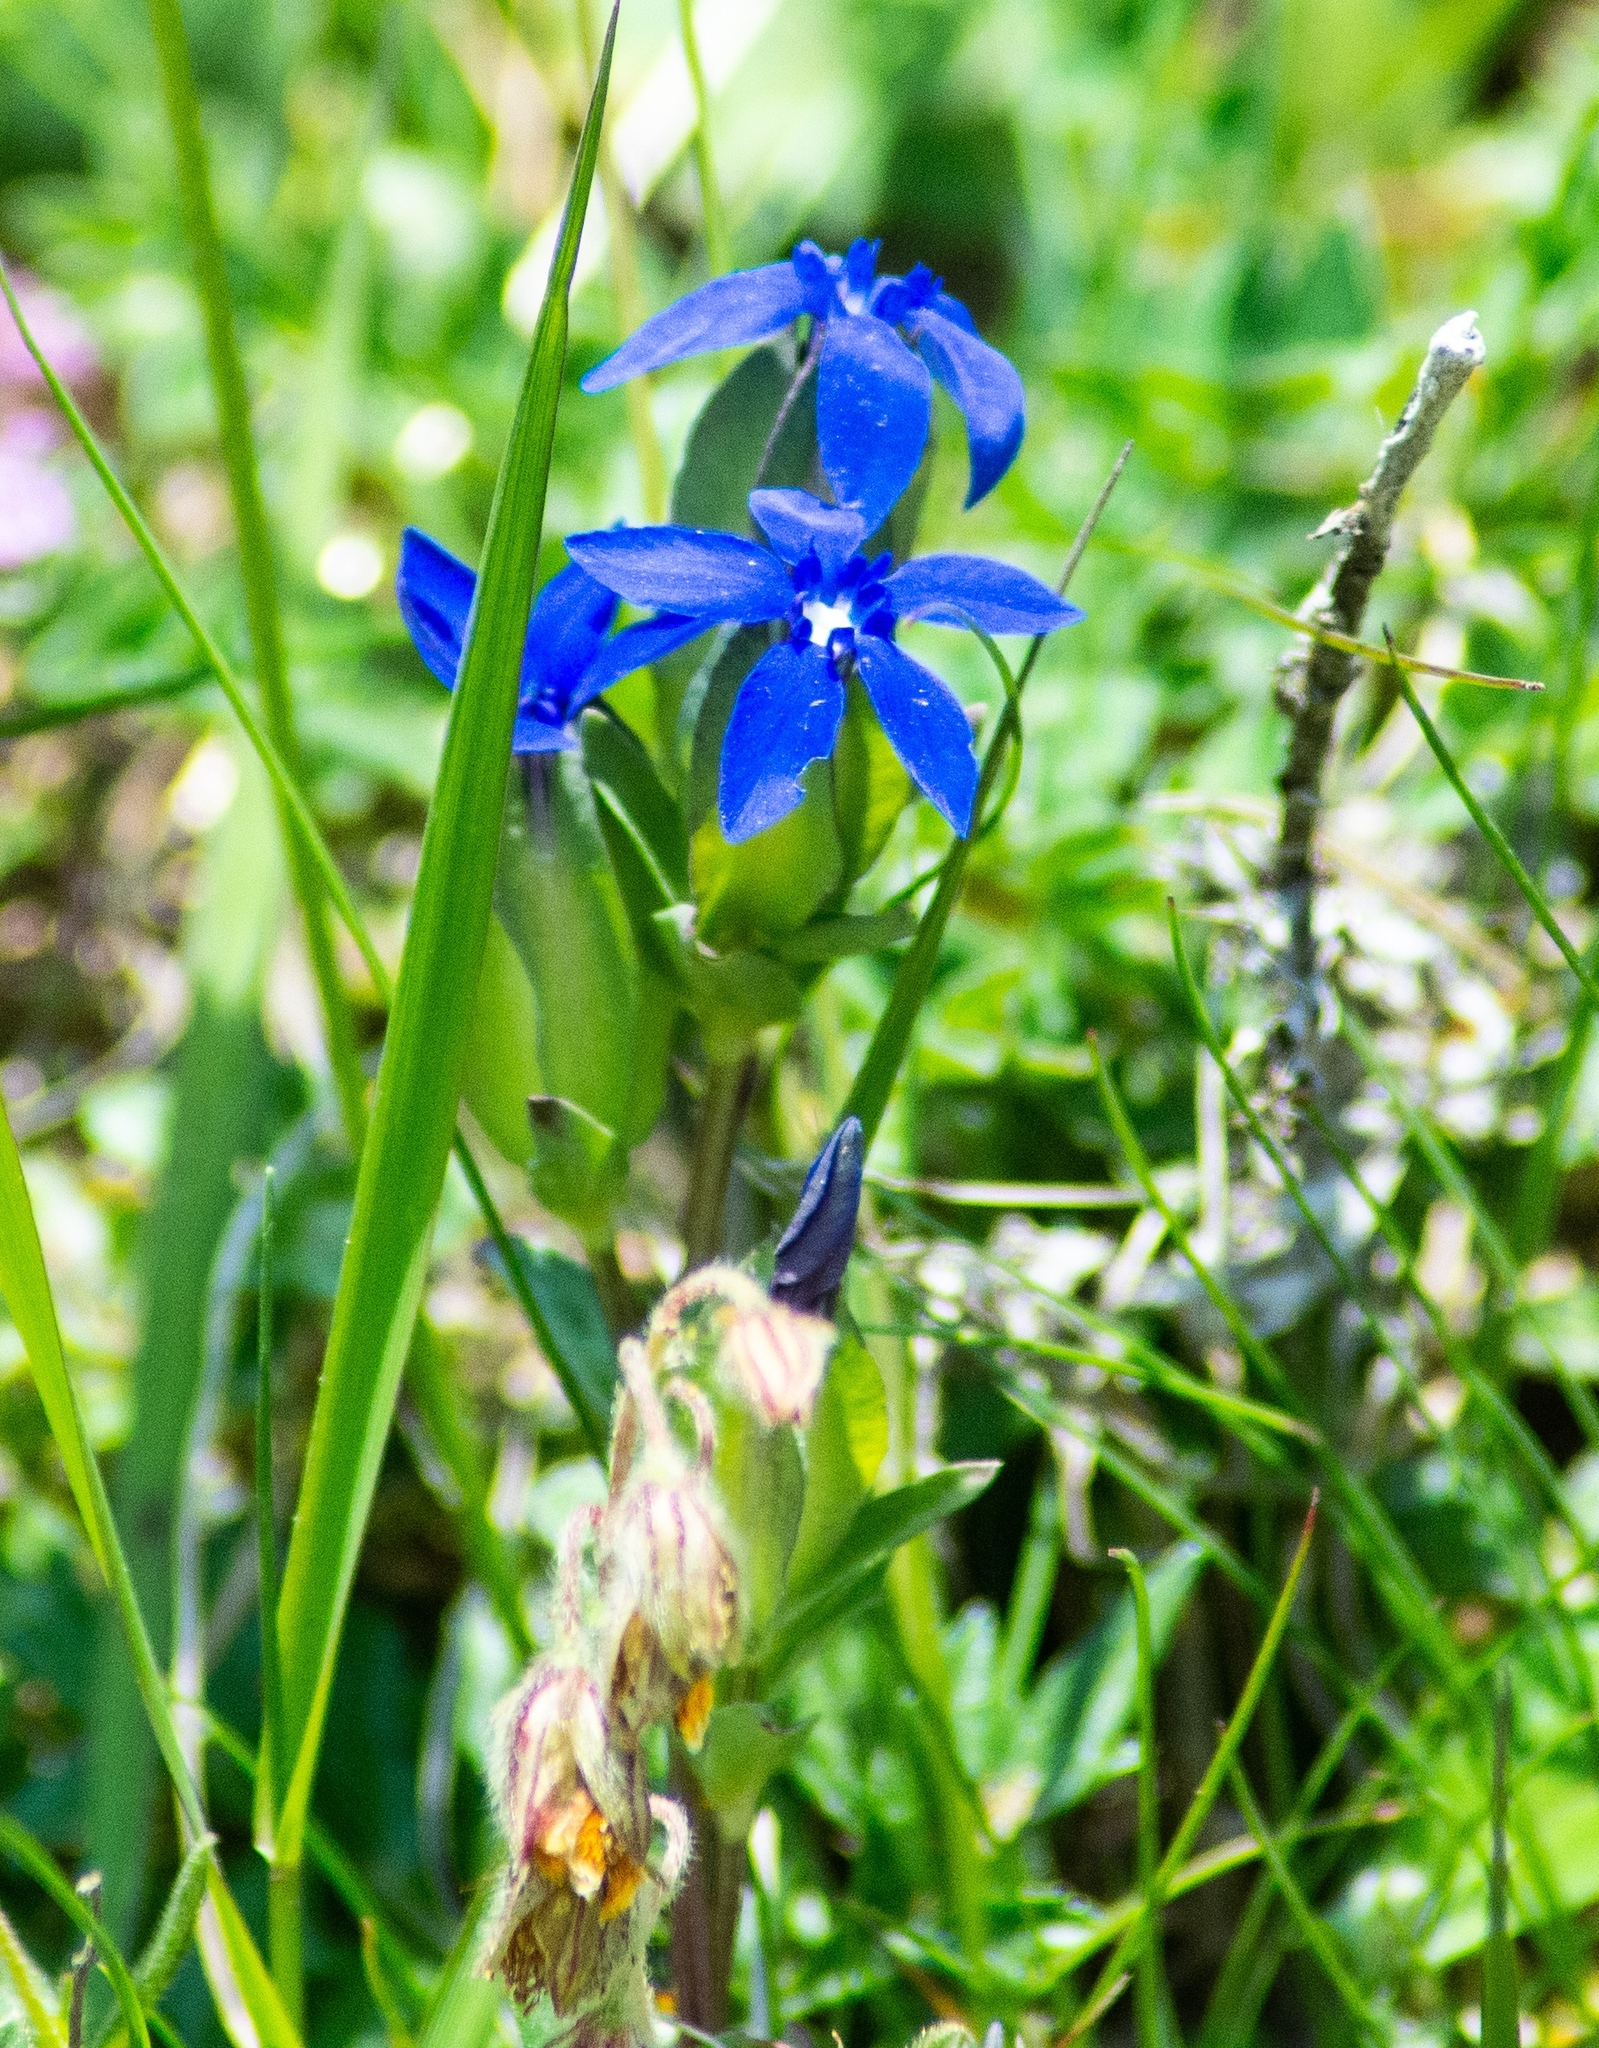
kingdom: Plantae
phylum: Tracheophyta
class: Magnoliopsida
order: Gentianales
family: Gentianaceae
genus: Gentiana
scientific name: Gentiana utriculosa
